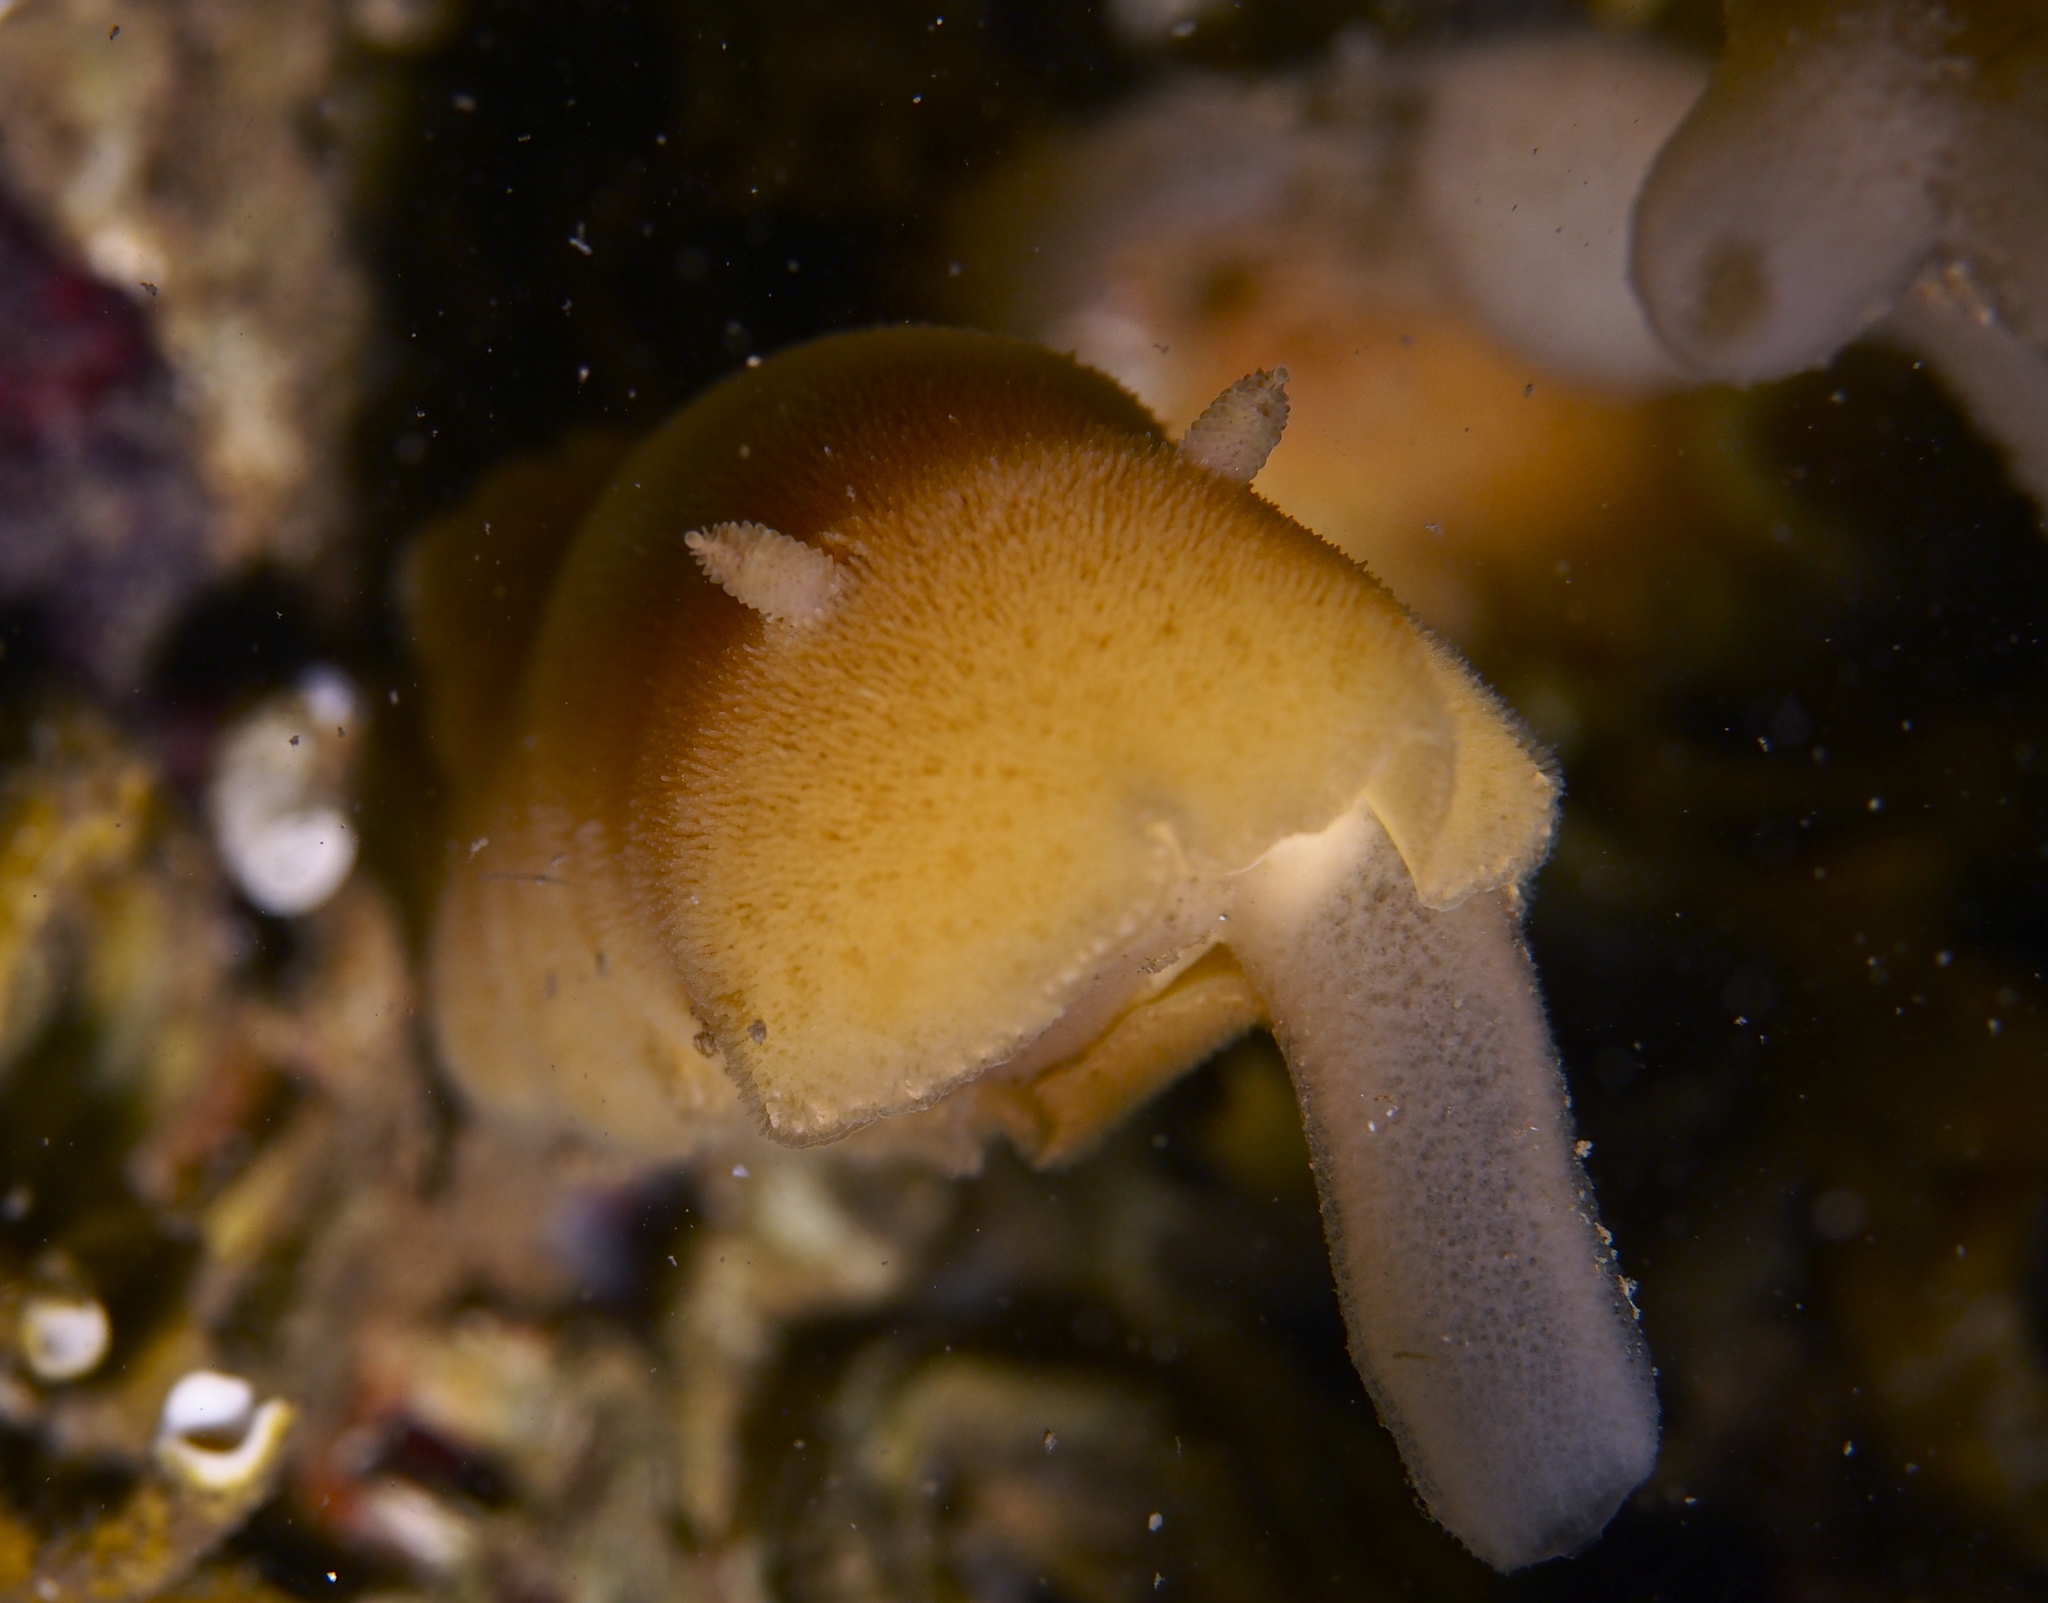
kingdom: Animalia
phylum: Mollusca
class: Gastropoda
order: Nudibranchia
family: Discodorididae
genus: Jorunna
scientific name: Jorunna tomentosa
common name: Grey sea slug
